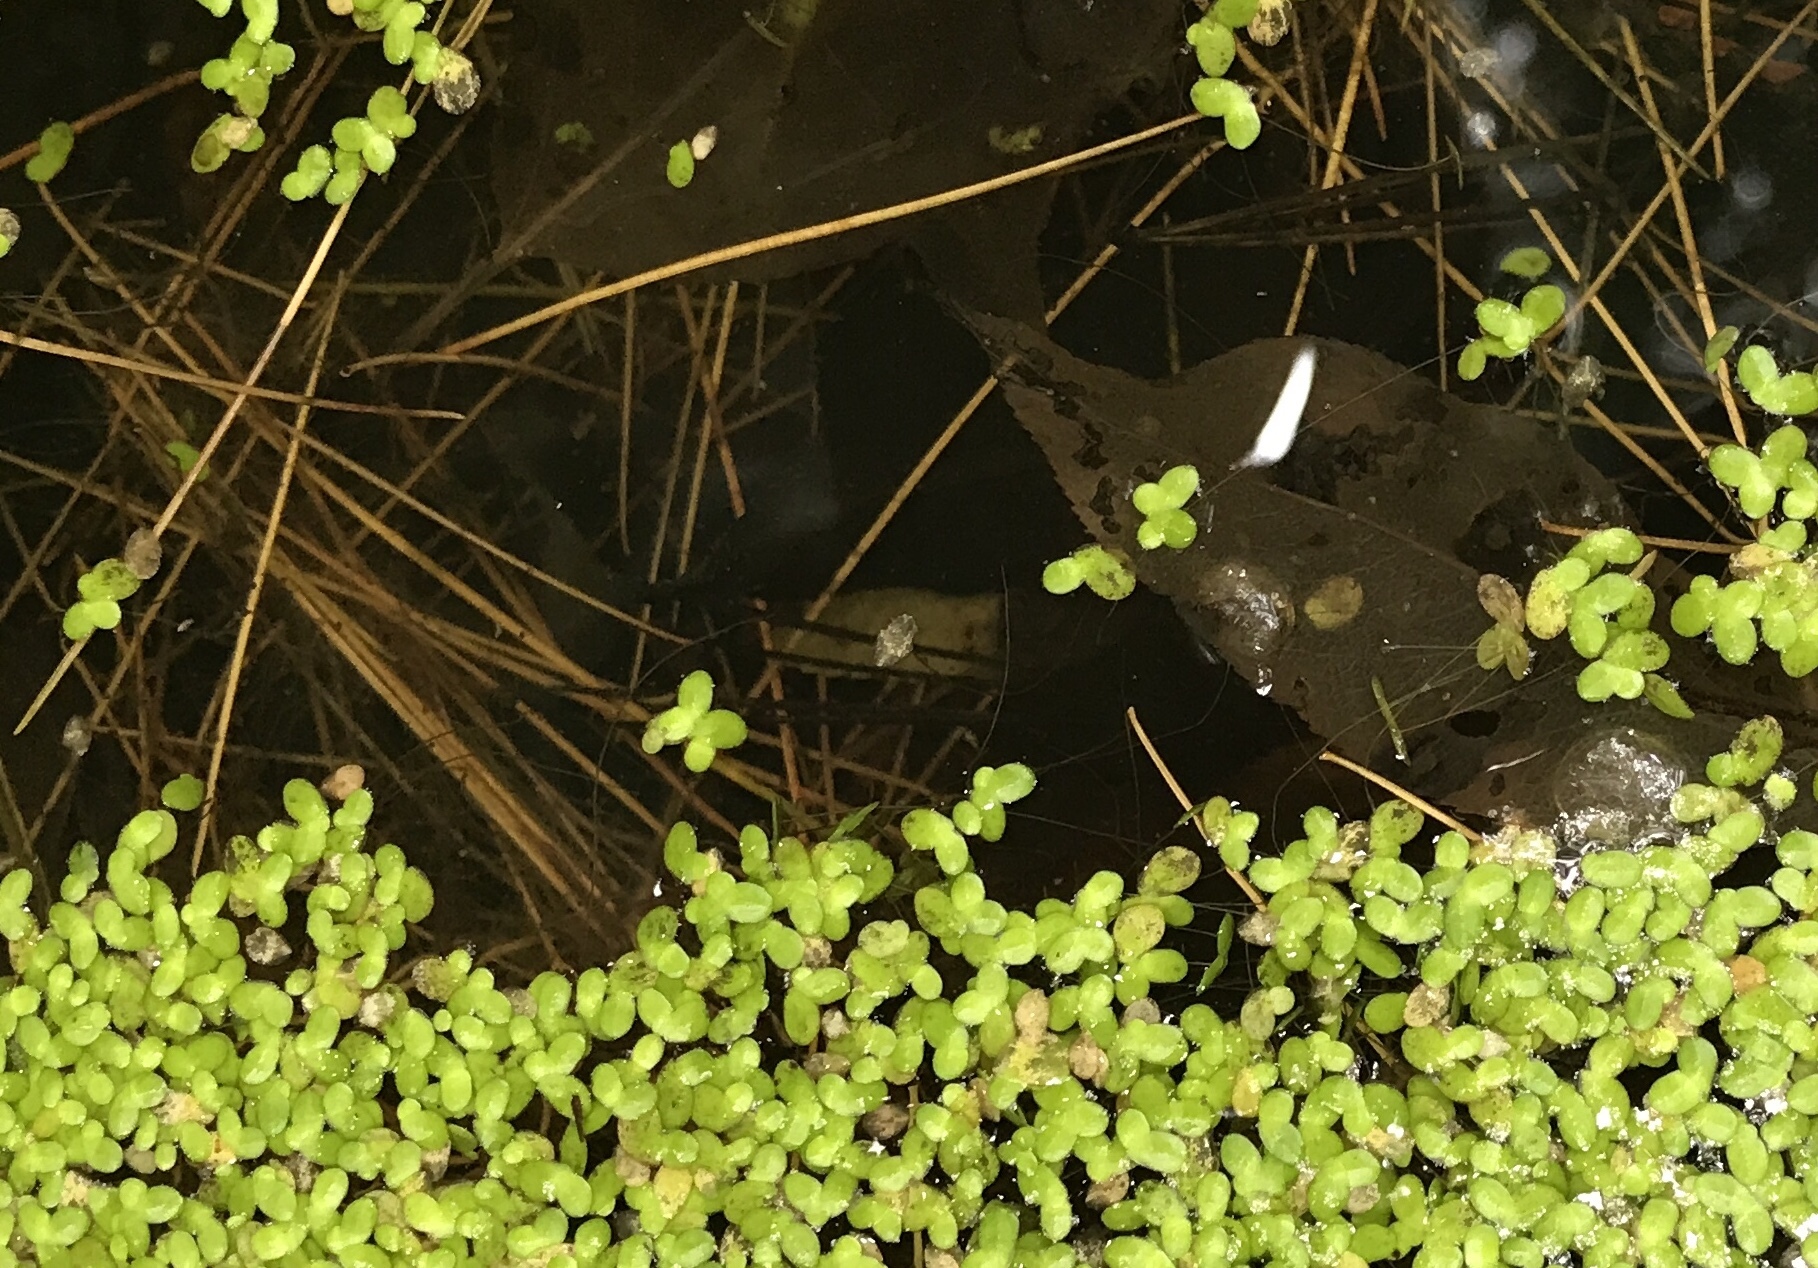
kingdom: Plantae
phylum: Tracheophyta
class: Liliopsida
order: Alismatales
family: Araceae
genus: Lemna
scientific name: Lemna minor
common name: Common duckweed
